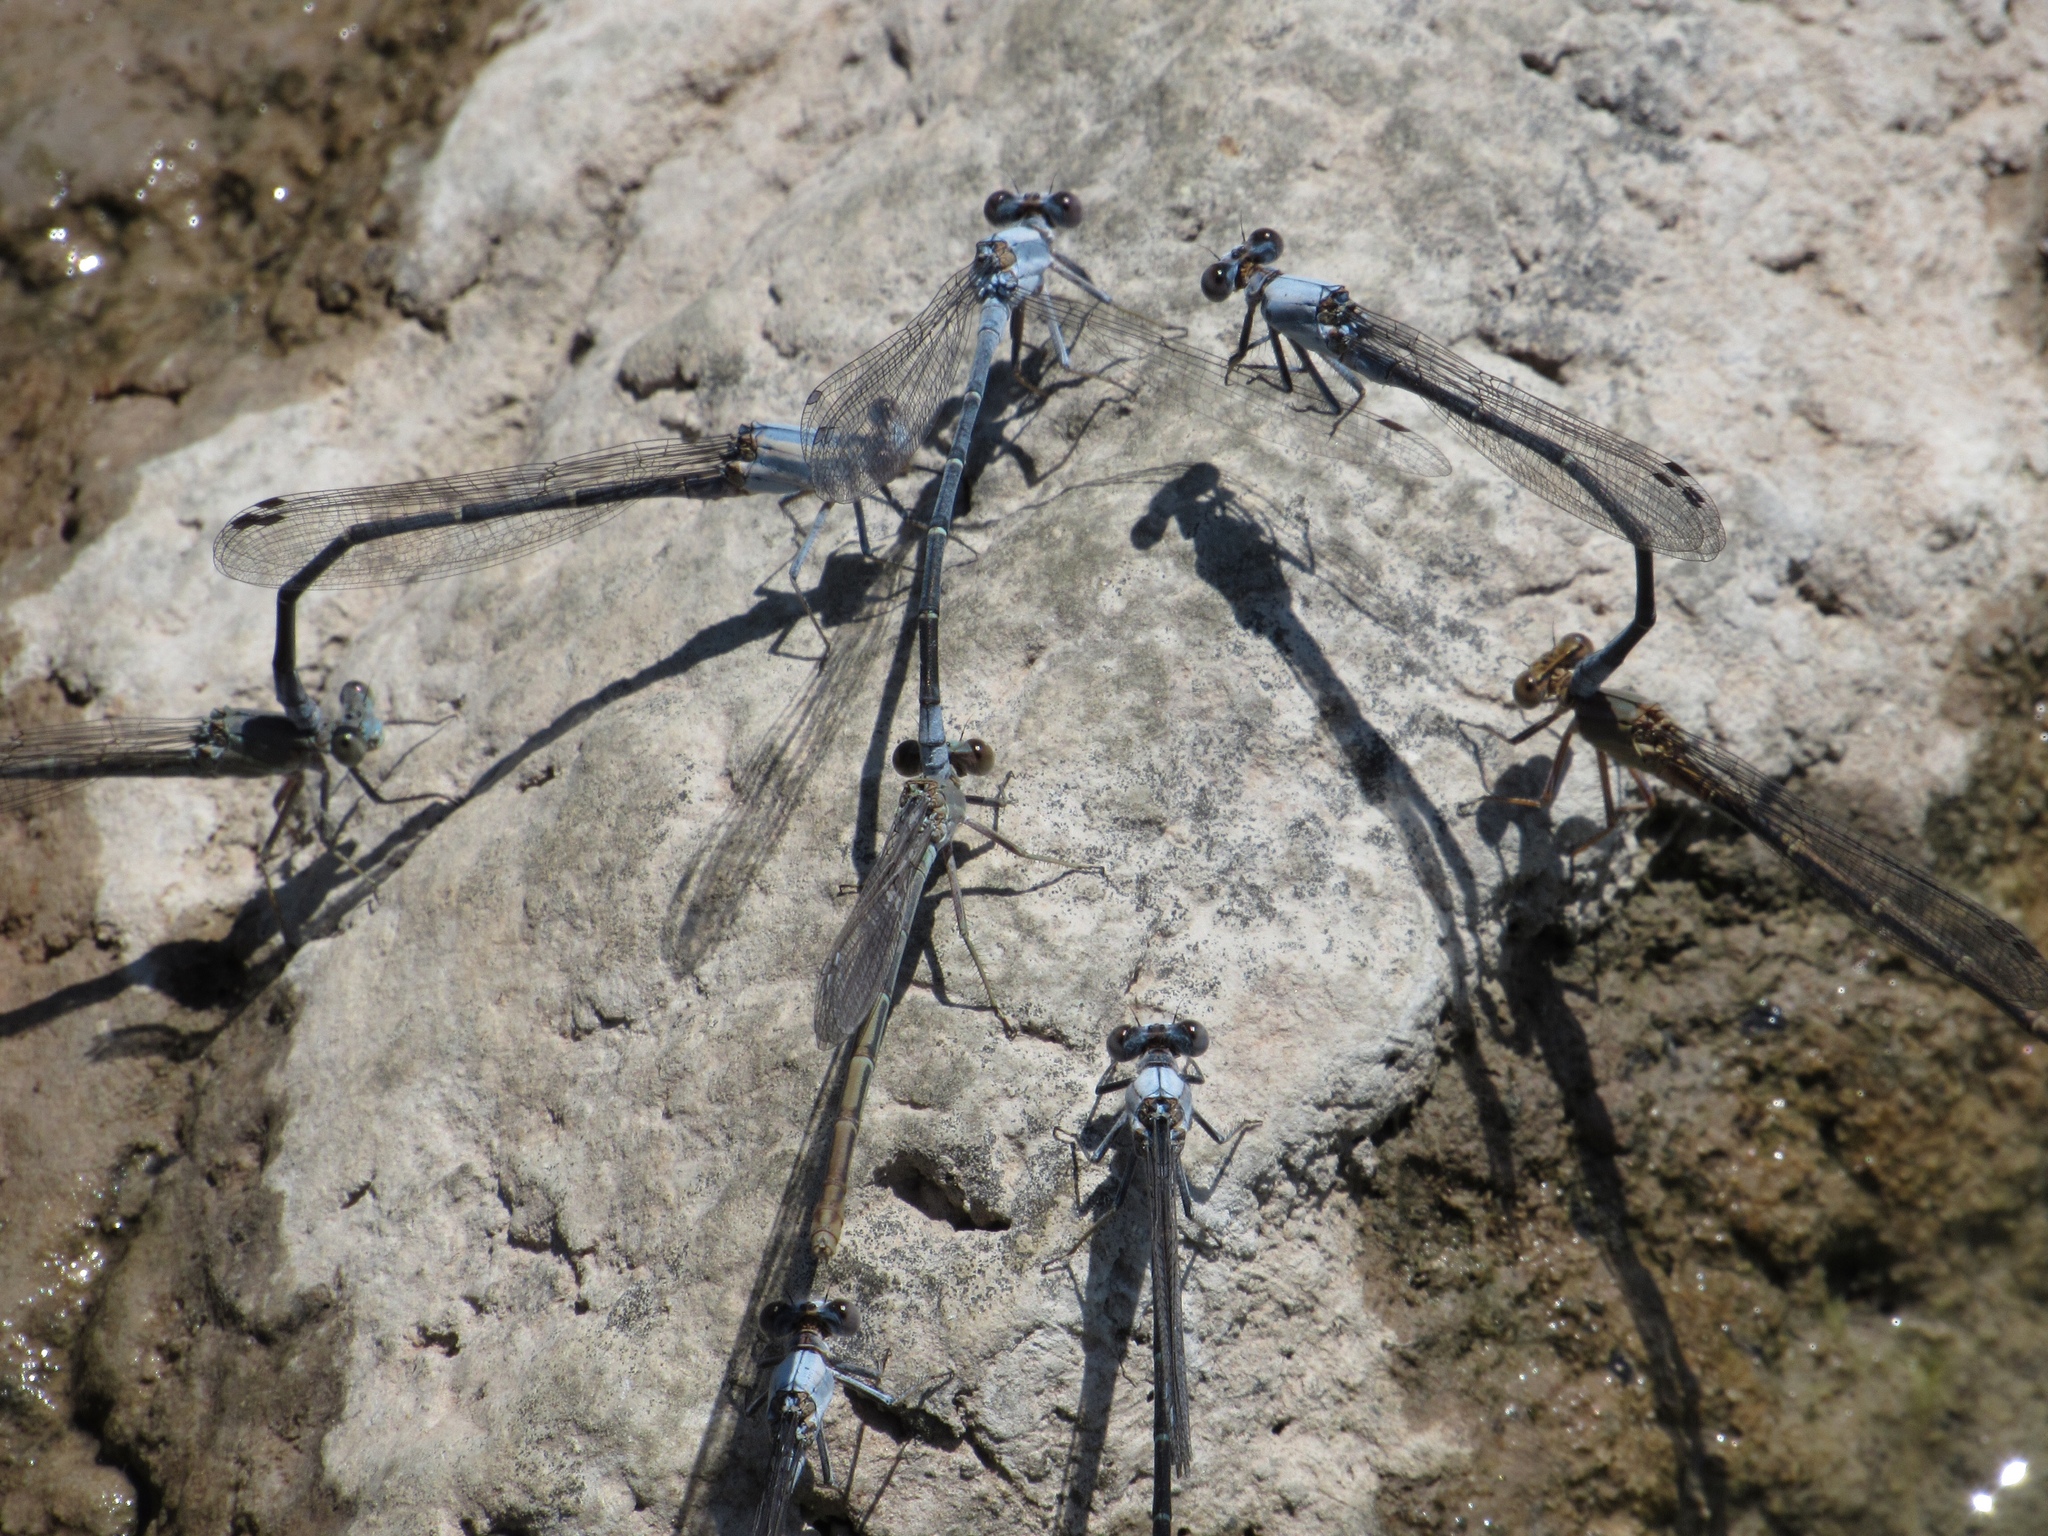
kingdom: Animalia
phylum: Arthropoda
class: Insecta
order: Odonata
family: Coenagrionidae
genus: Argia
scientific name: Argia moesta
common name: Powdered dancer
